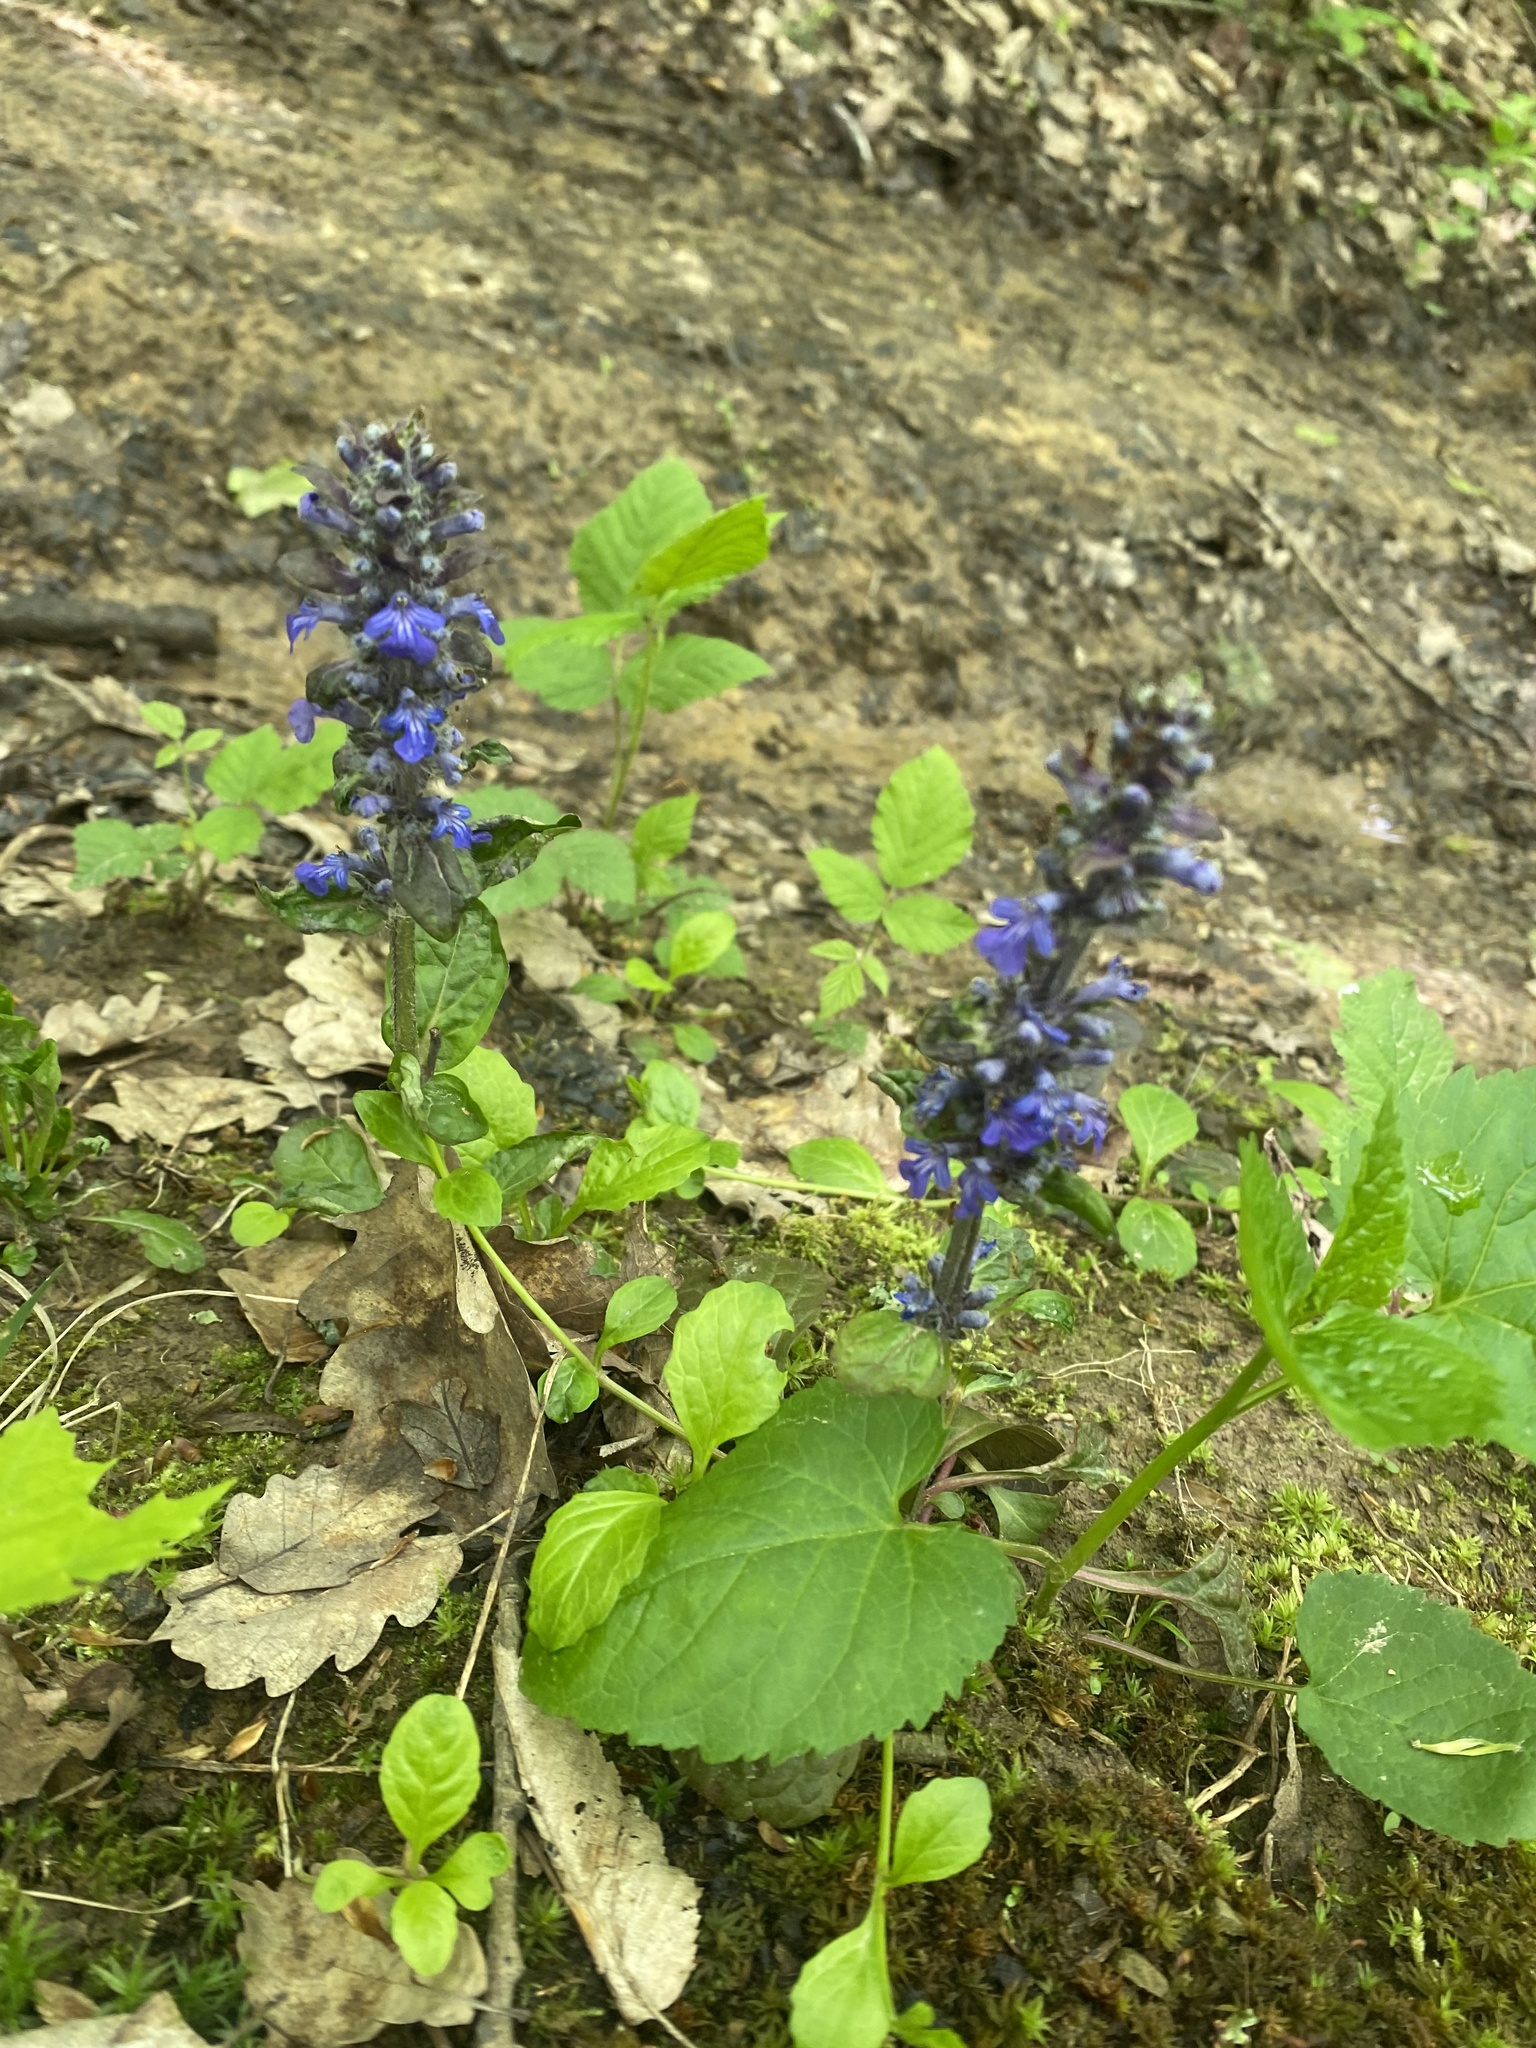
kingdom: Plantae
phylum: Tracheophyta
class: Magnoliopsida
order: Lamiales
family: Lamiaceae
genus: Ajuga
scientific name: Ajuga reptans
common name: Bugle
